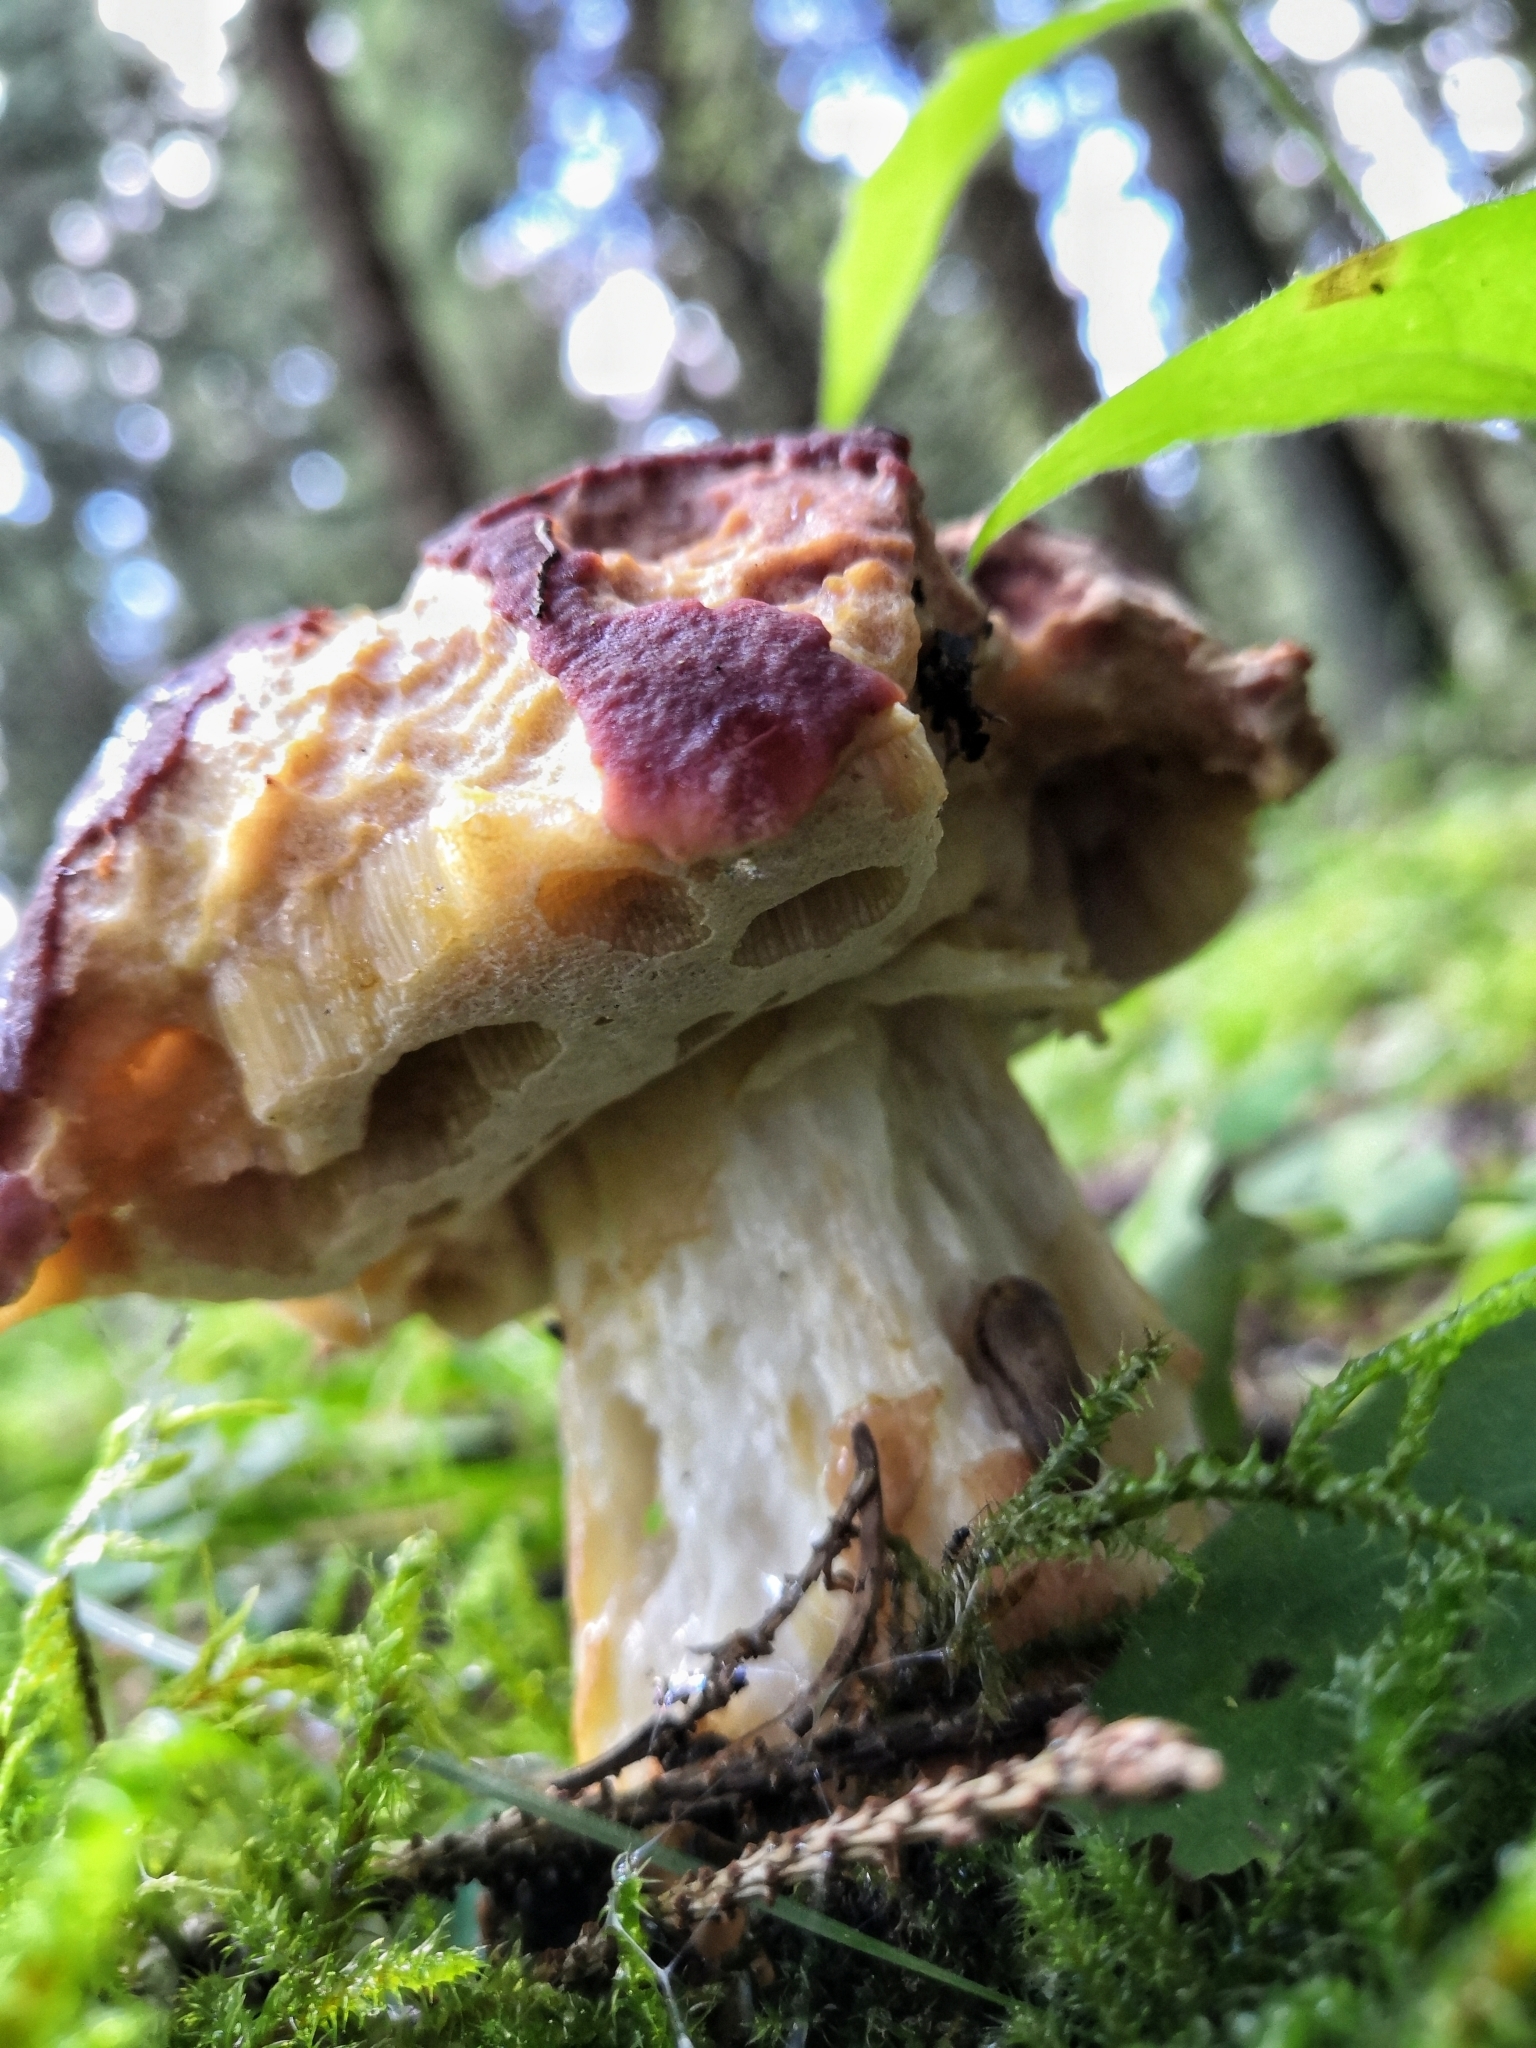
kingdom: Fungi
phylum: Basidiomycota
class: Agaricomycetes
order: Boletales
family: Boletaceae
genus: Boletus
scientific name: Boletus pinophilus
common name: Pine bolete
